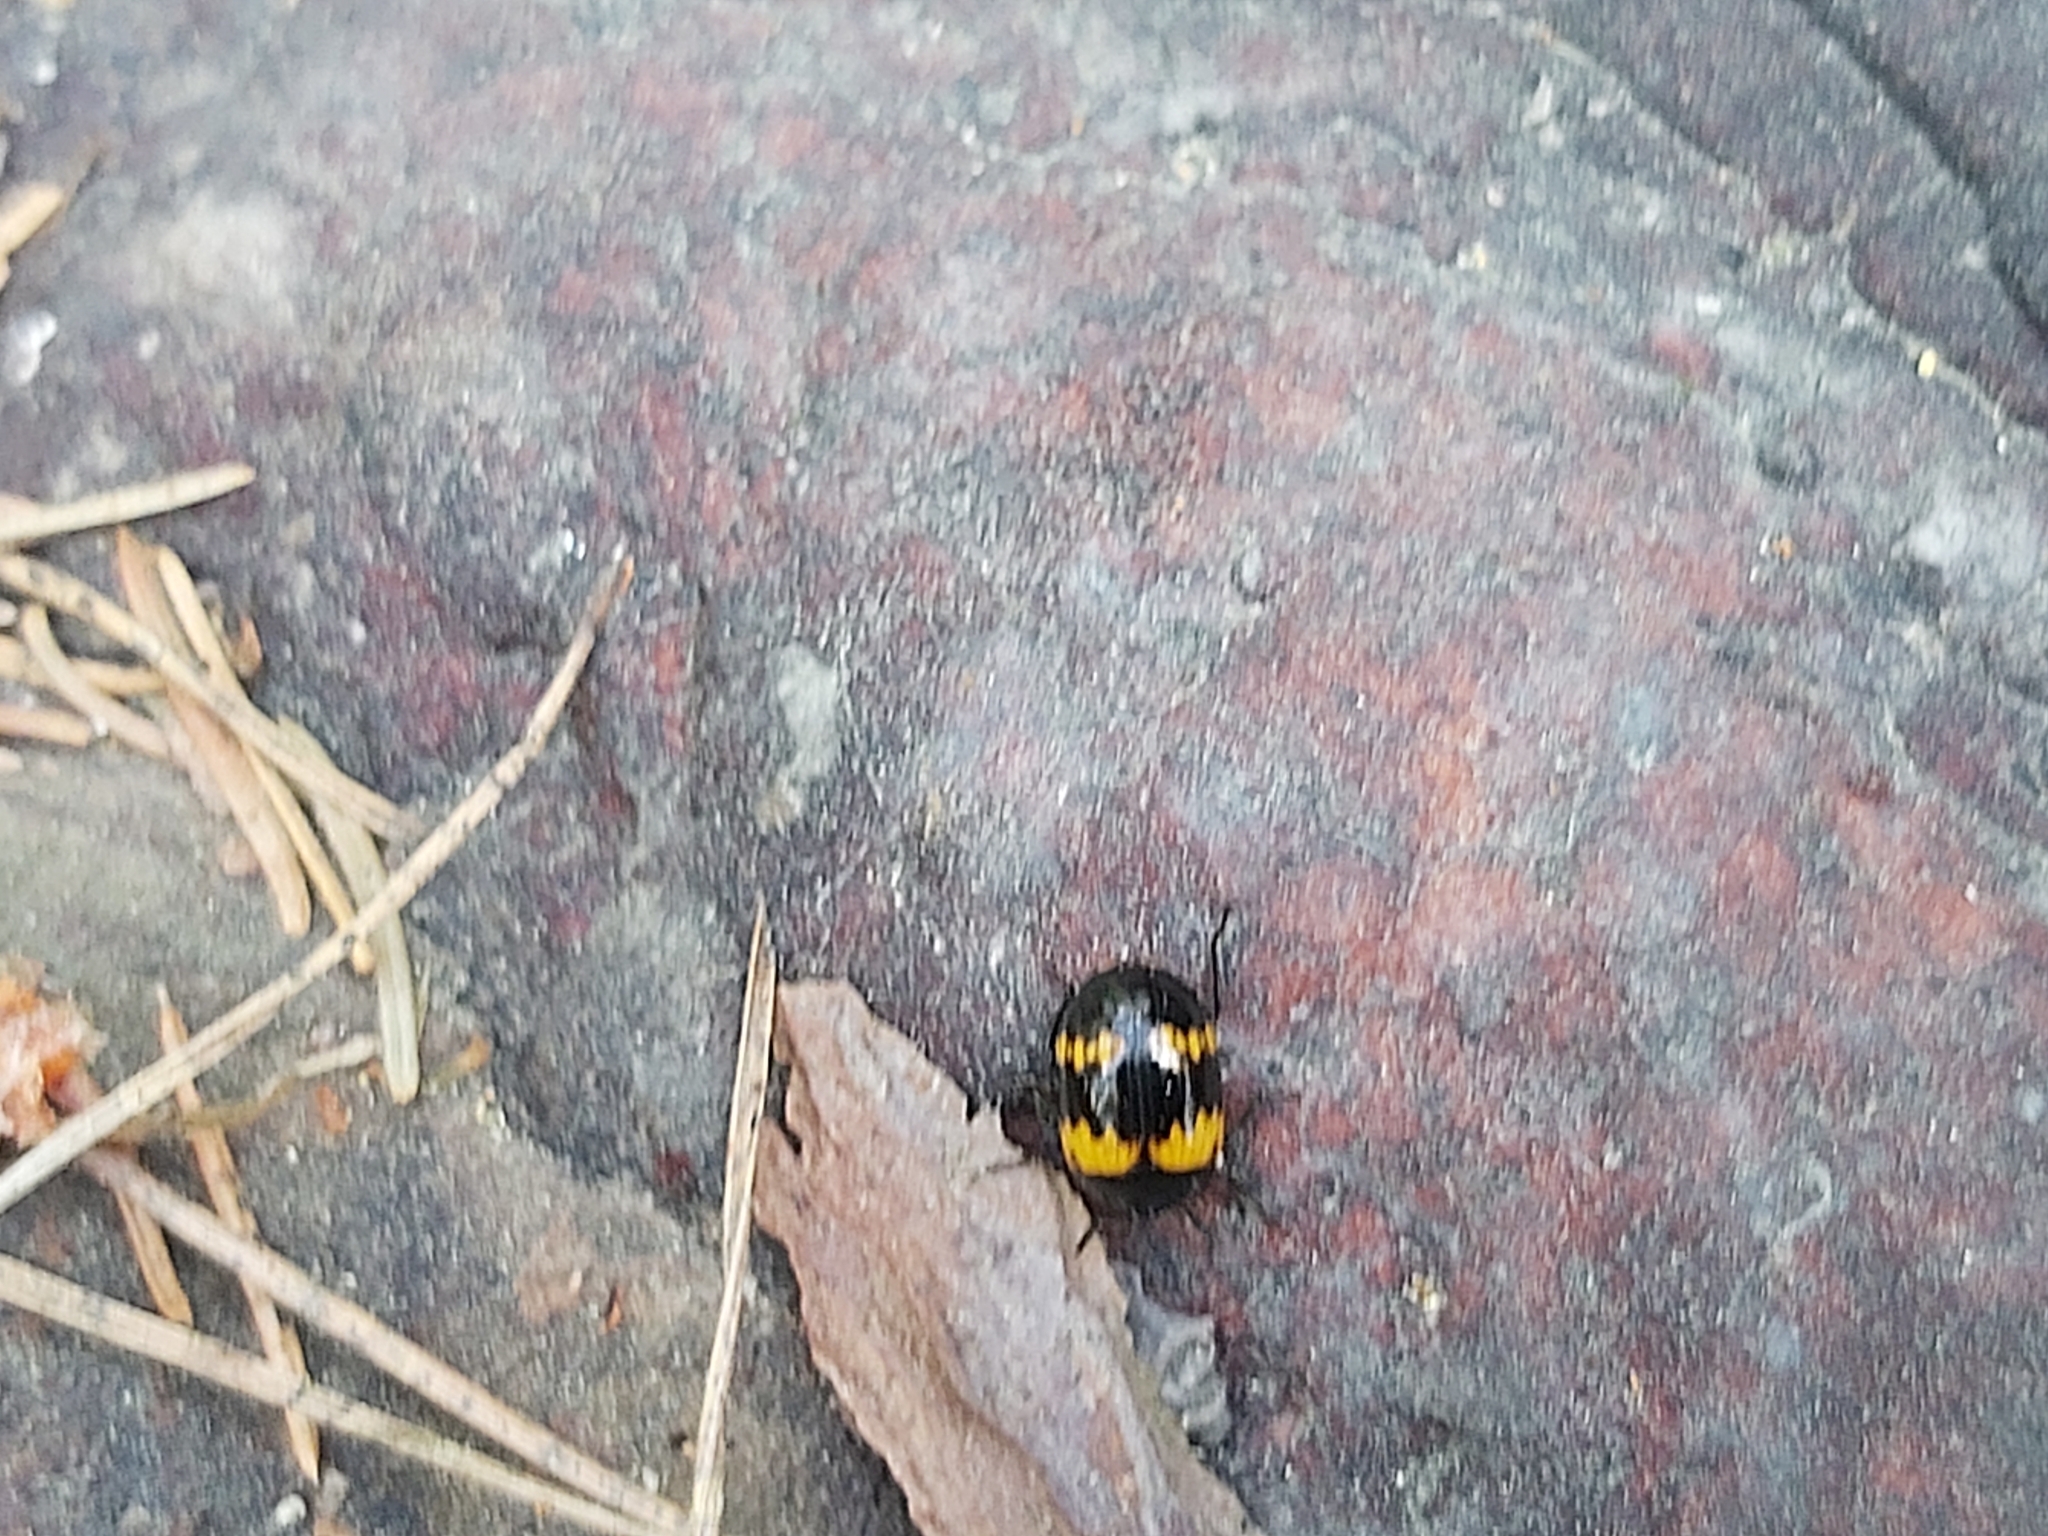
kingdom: Animalia
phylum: Arthropoda
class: Insecta
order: Coleoptera
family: Tenebrionidae
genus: Diaperis
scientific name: Diaperis boleti
